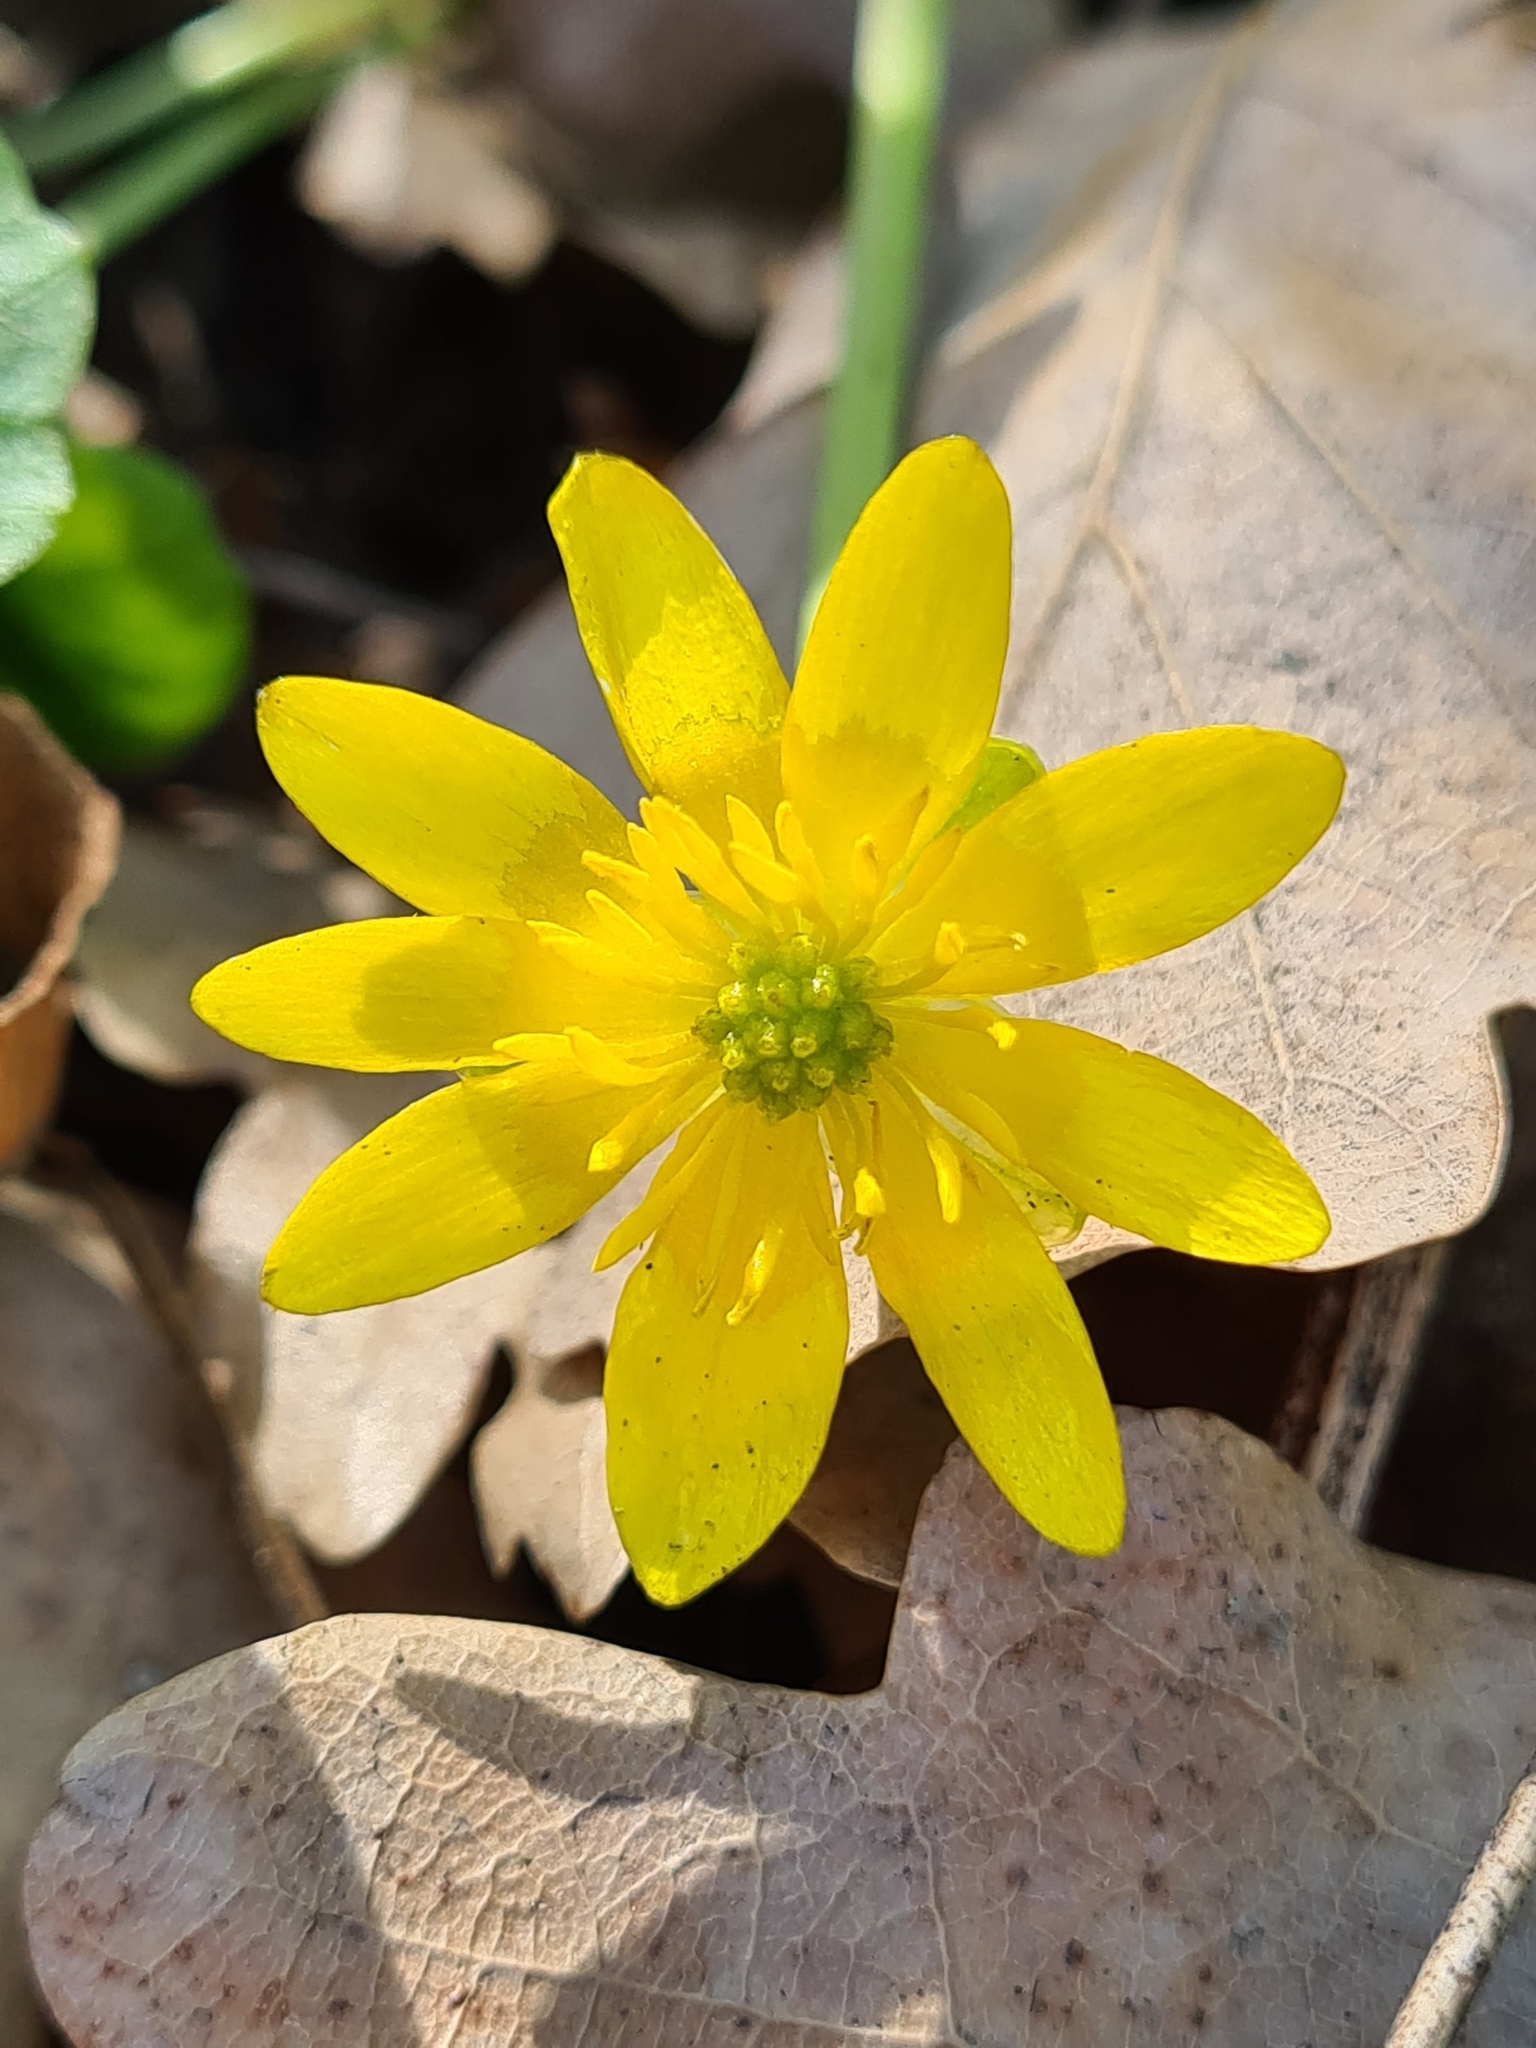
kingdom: Plantae
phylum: Tracheophyta
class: Magnoliopsida
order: Ranunculales
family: Ranunculaceae
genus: Ficaria
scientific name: Ficaria verna
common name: Lesser celandine
